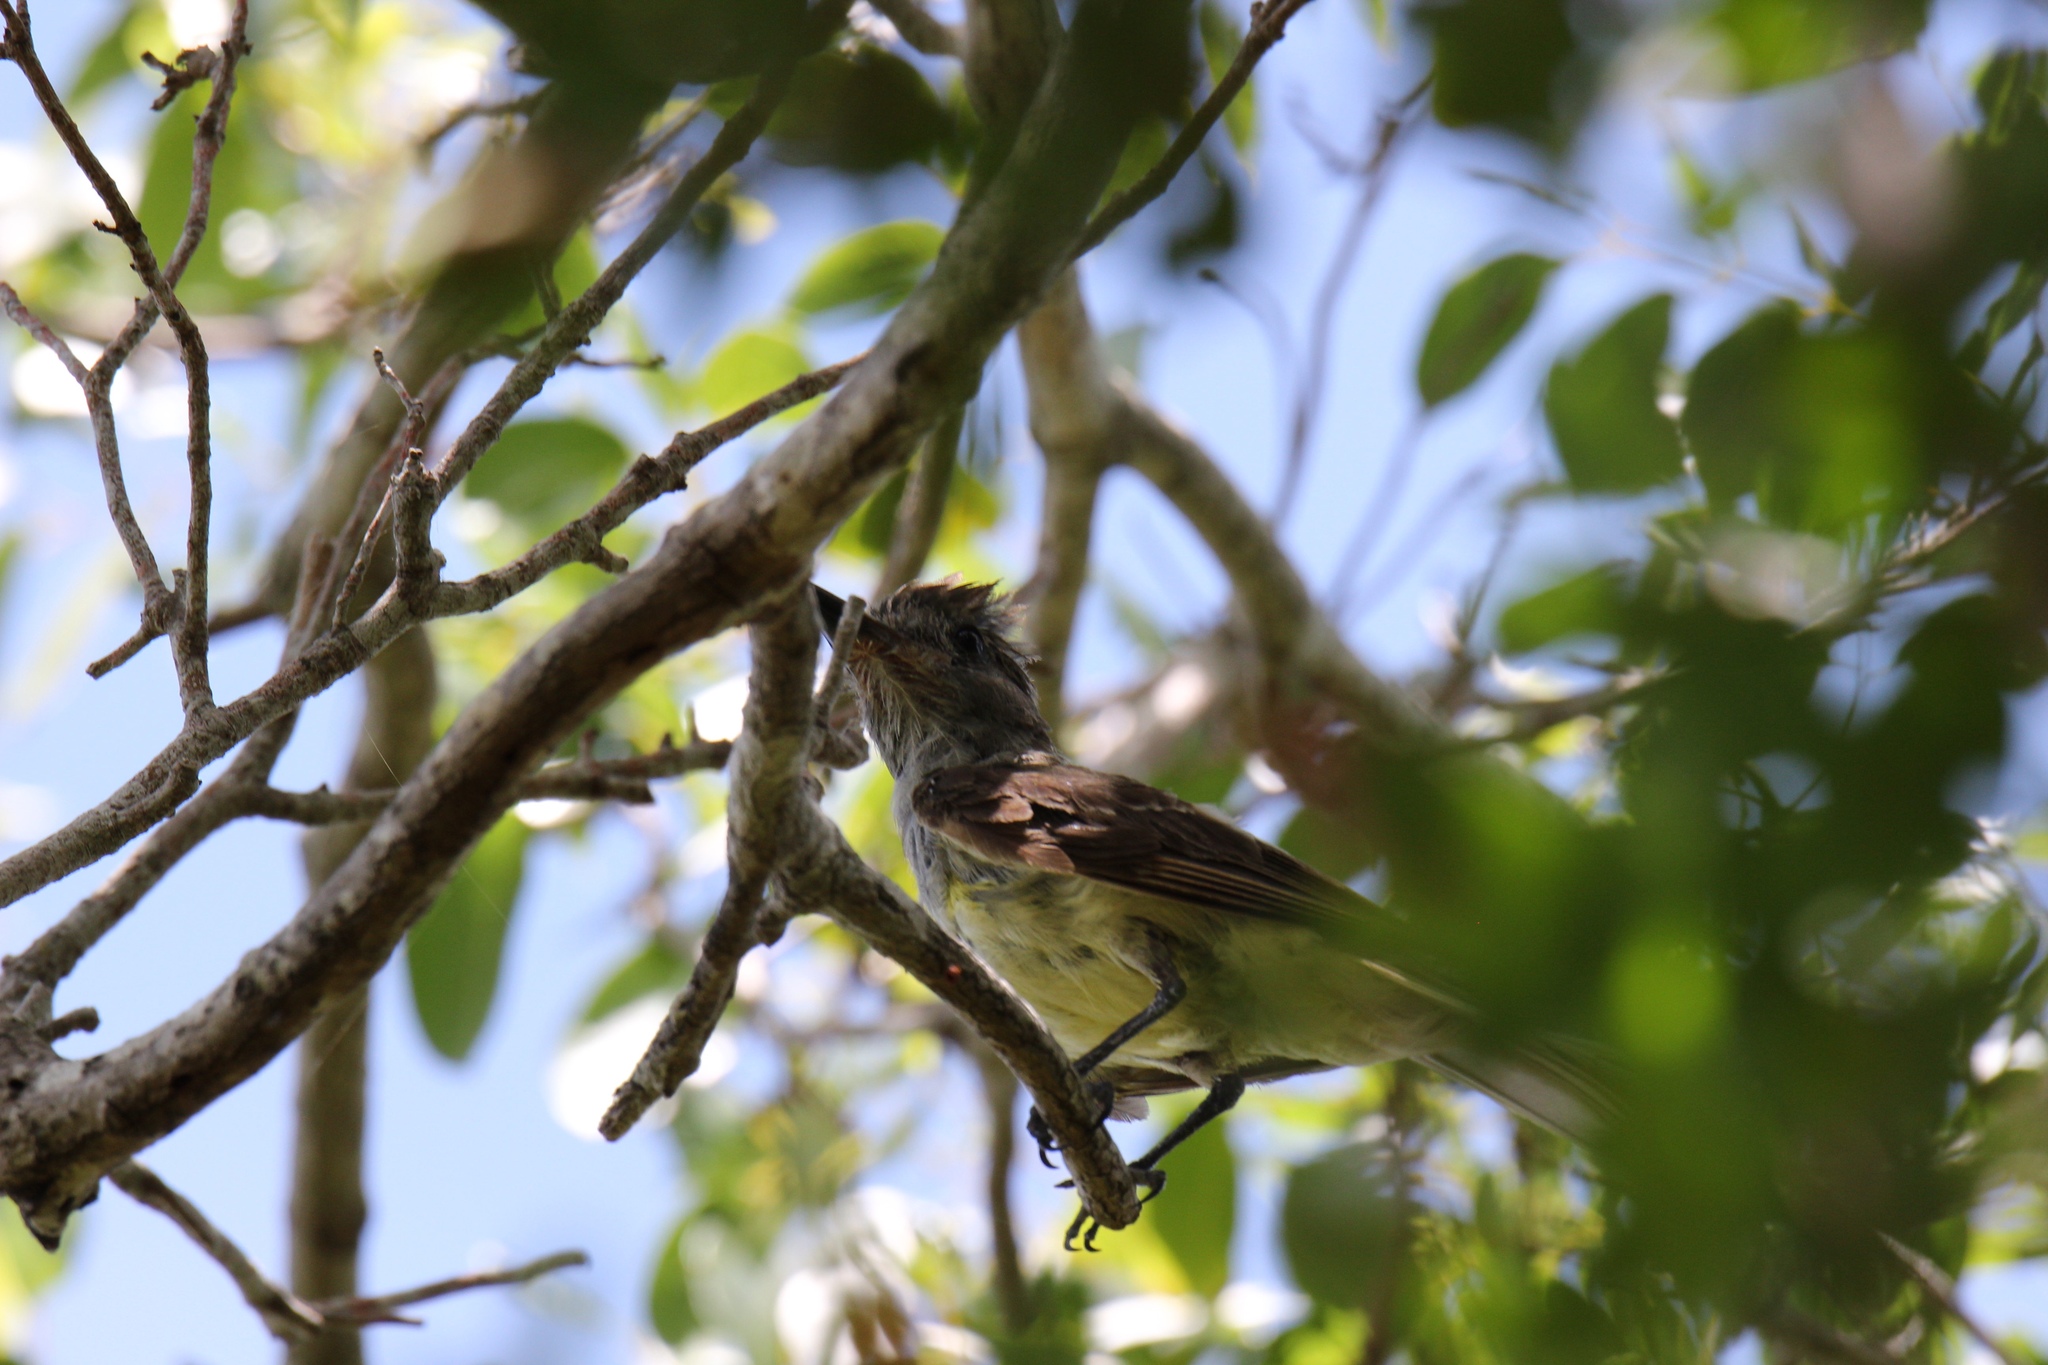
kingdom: Animalia
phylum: Chordata
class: Aves
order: Passeriformes
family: Tyrannidae
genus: Myiarchus
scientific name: Myiarchus crinitus
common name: Great crested flycatcher
